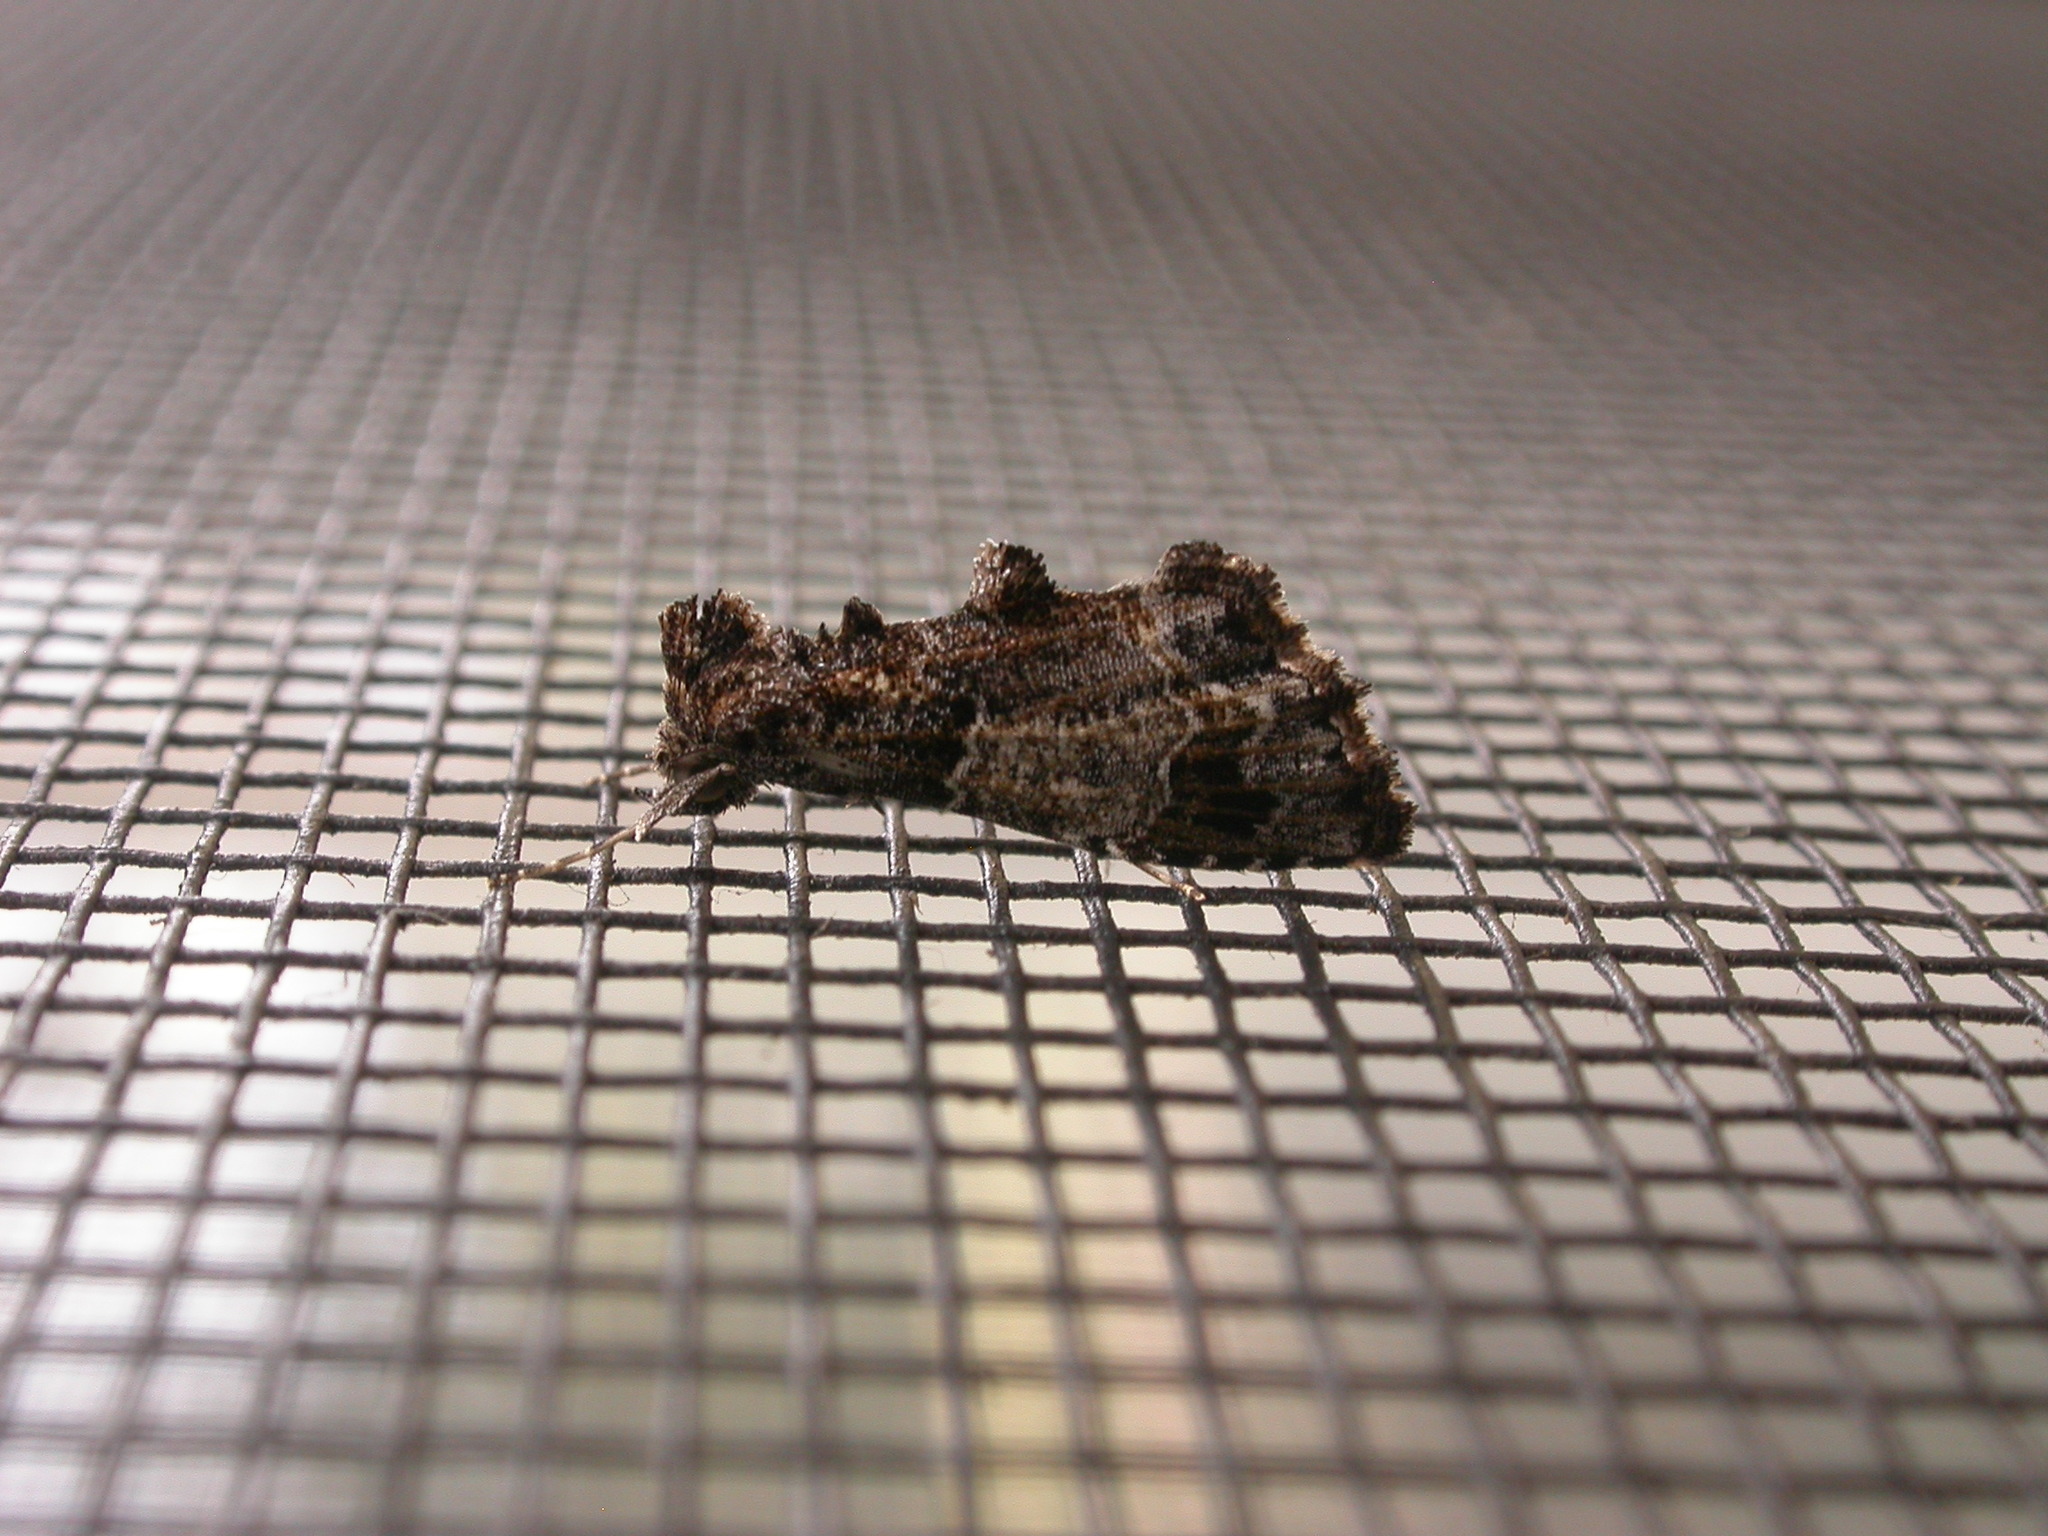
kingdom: Animalia
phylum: Arthropoda
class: Insecta
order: Lepidoptera
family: Erebidae
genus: Arrade
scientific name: Arrade destituta
